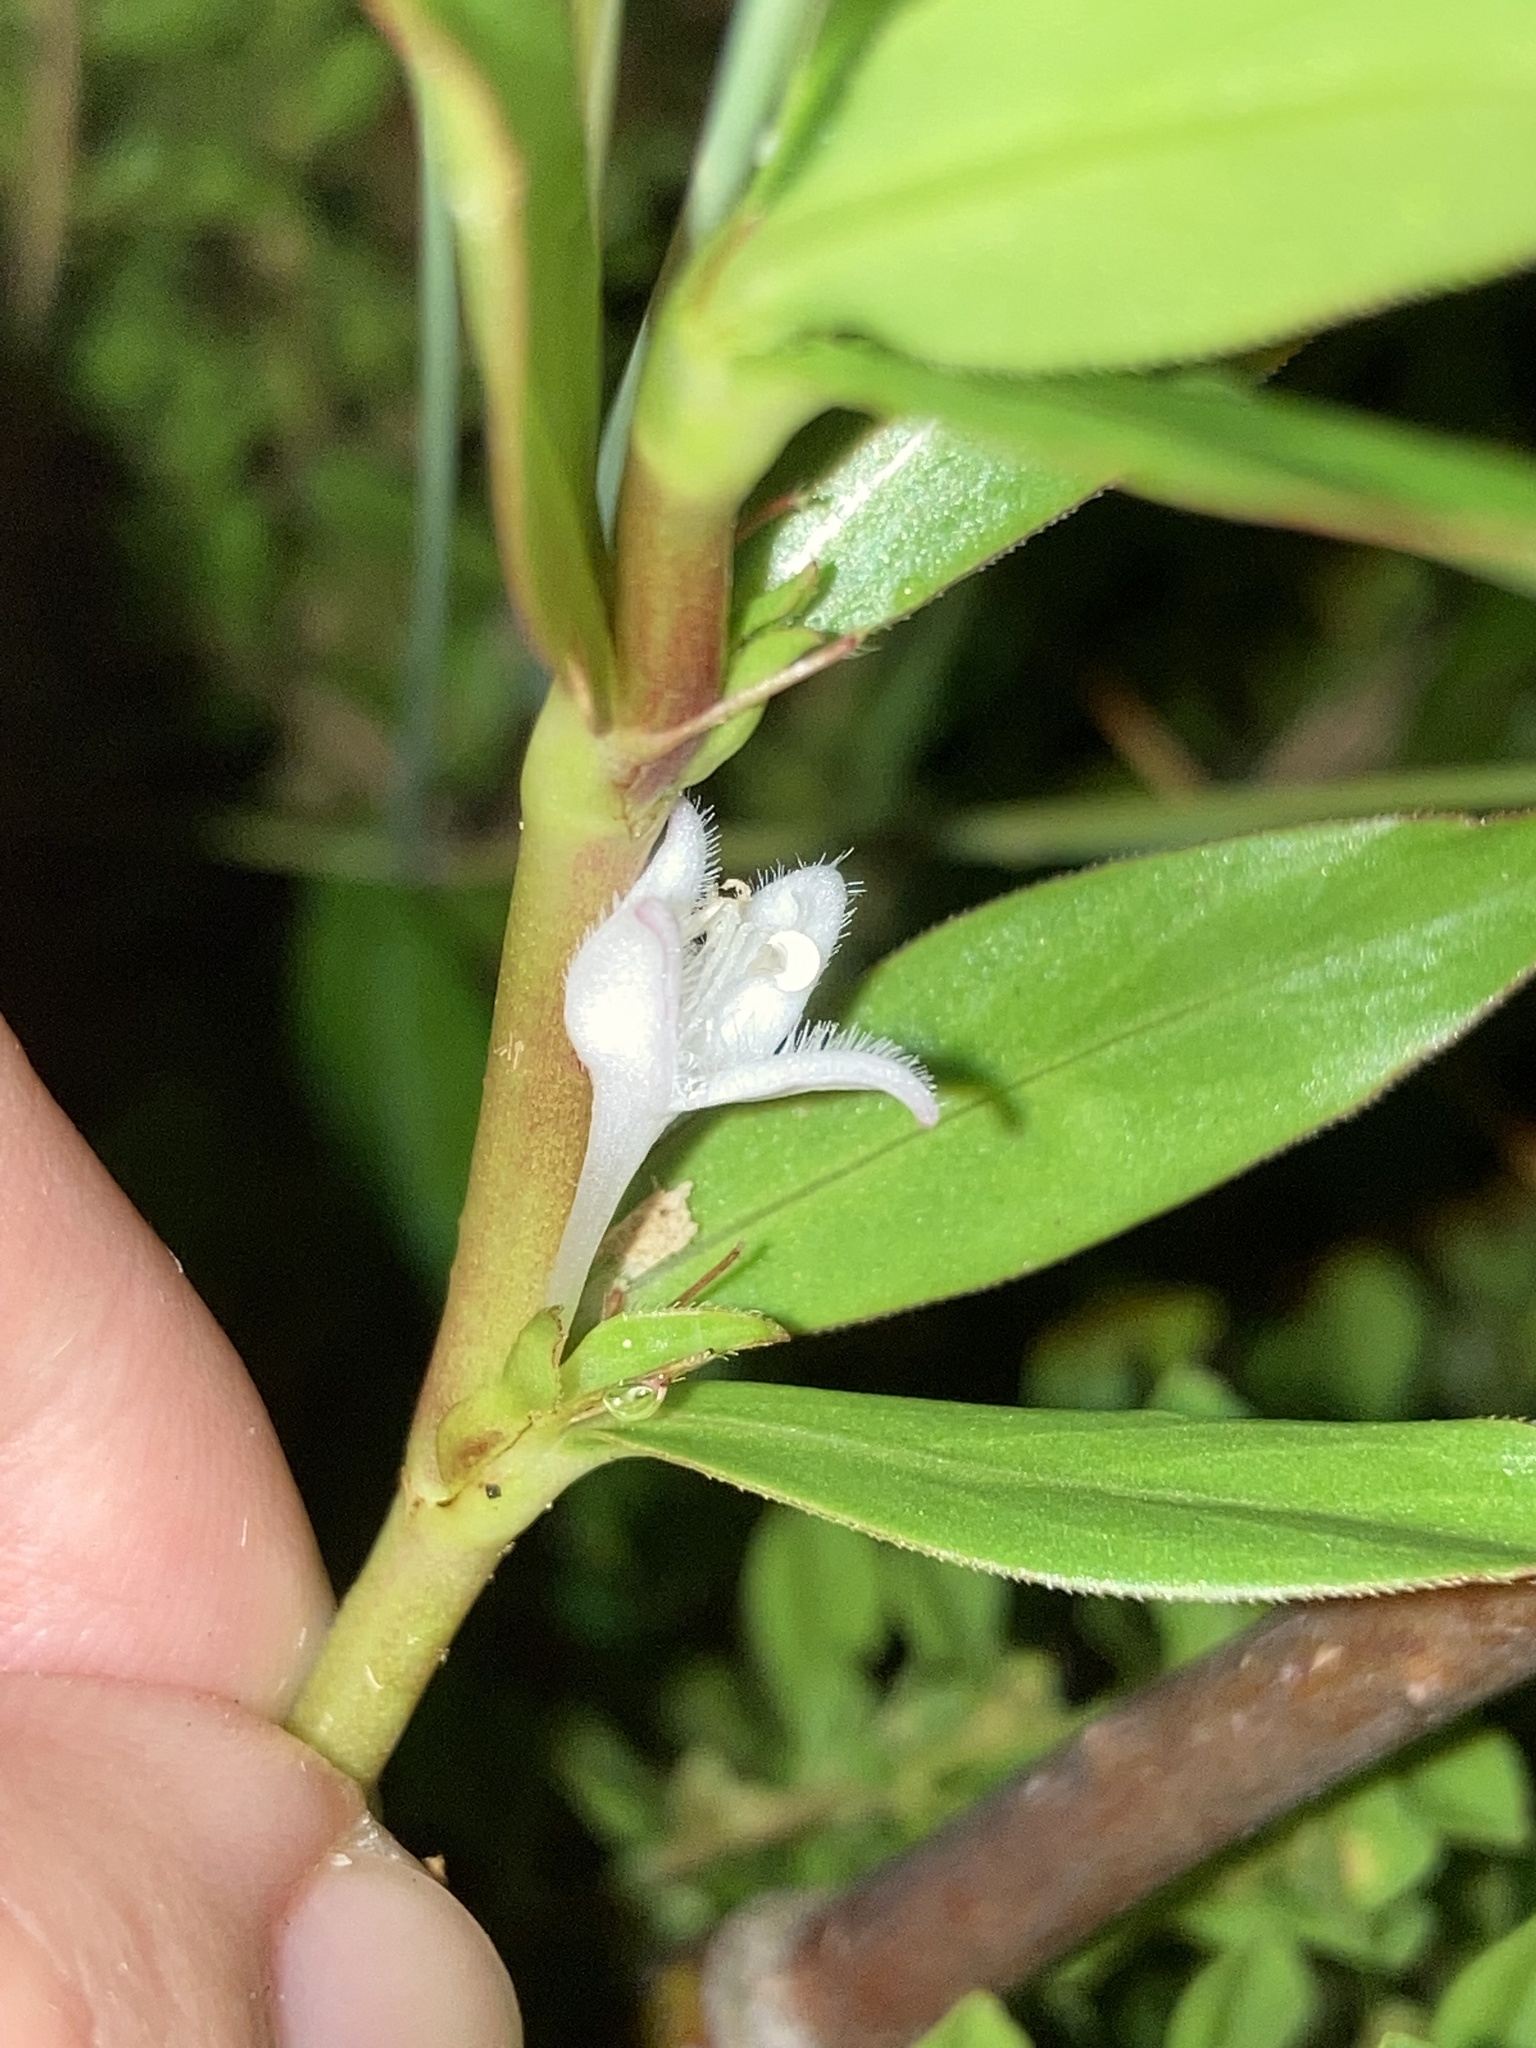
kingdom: Plantae
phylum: Tracheophyta
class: Magnoliopsida
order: Gentianales
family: Rubiaceae
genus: Diodia
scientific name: Diodia virginiana
